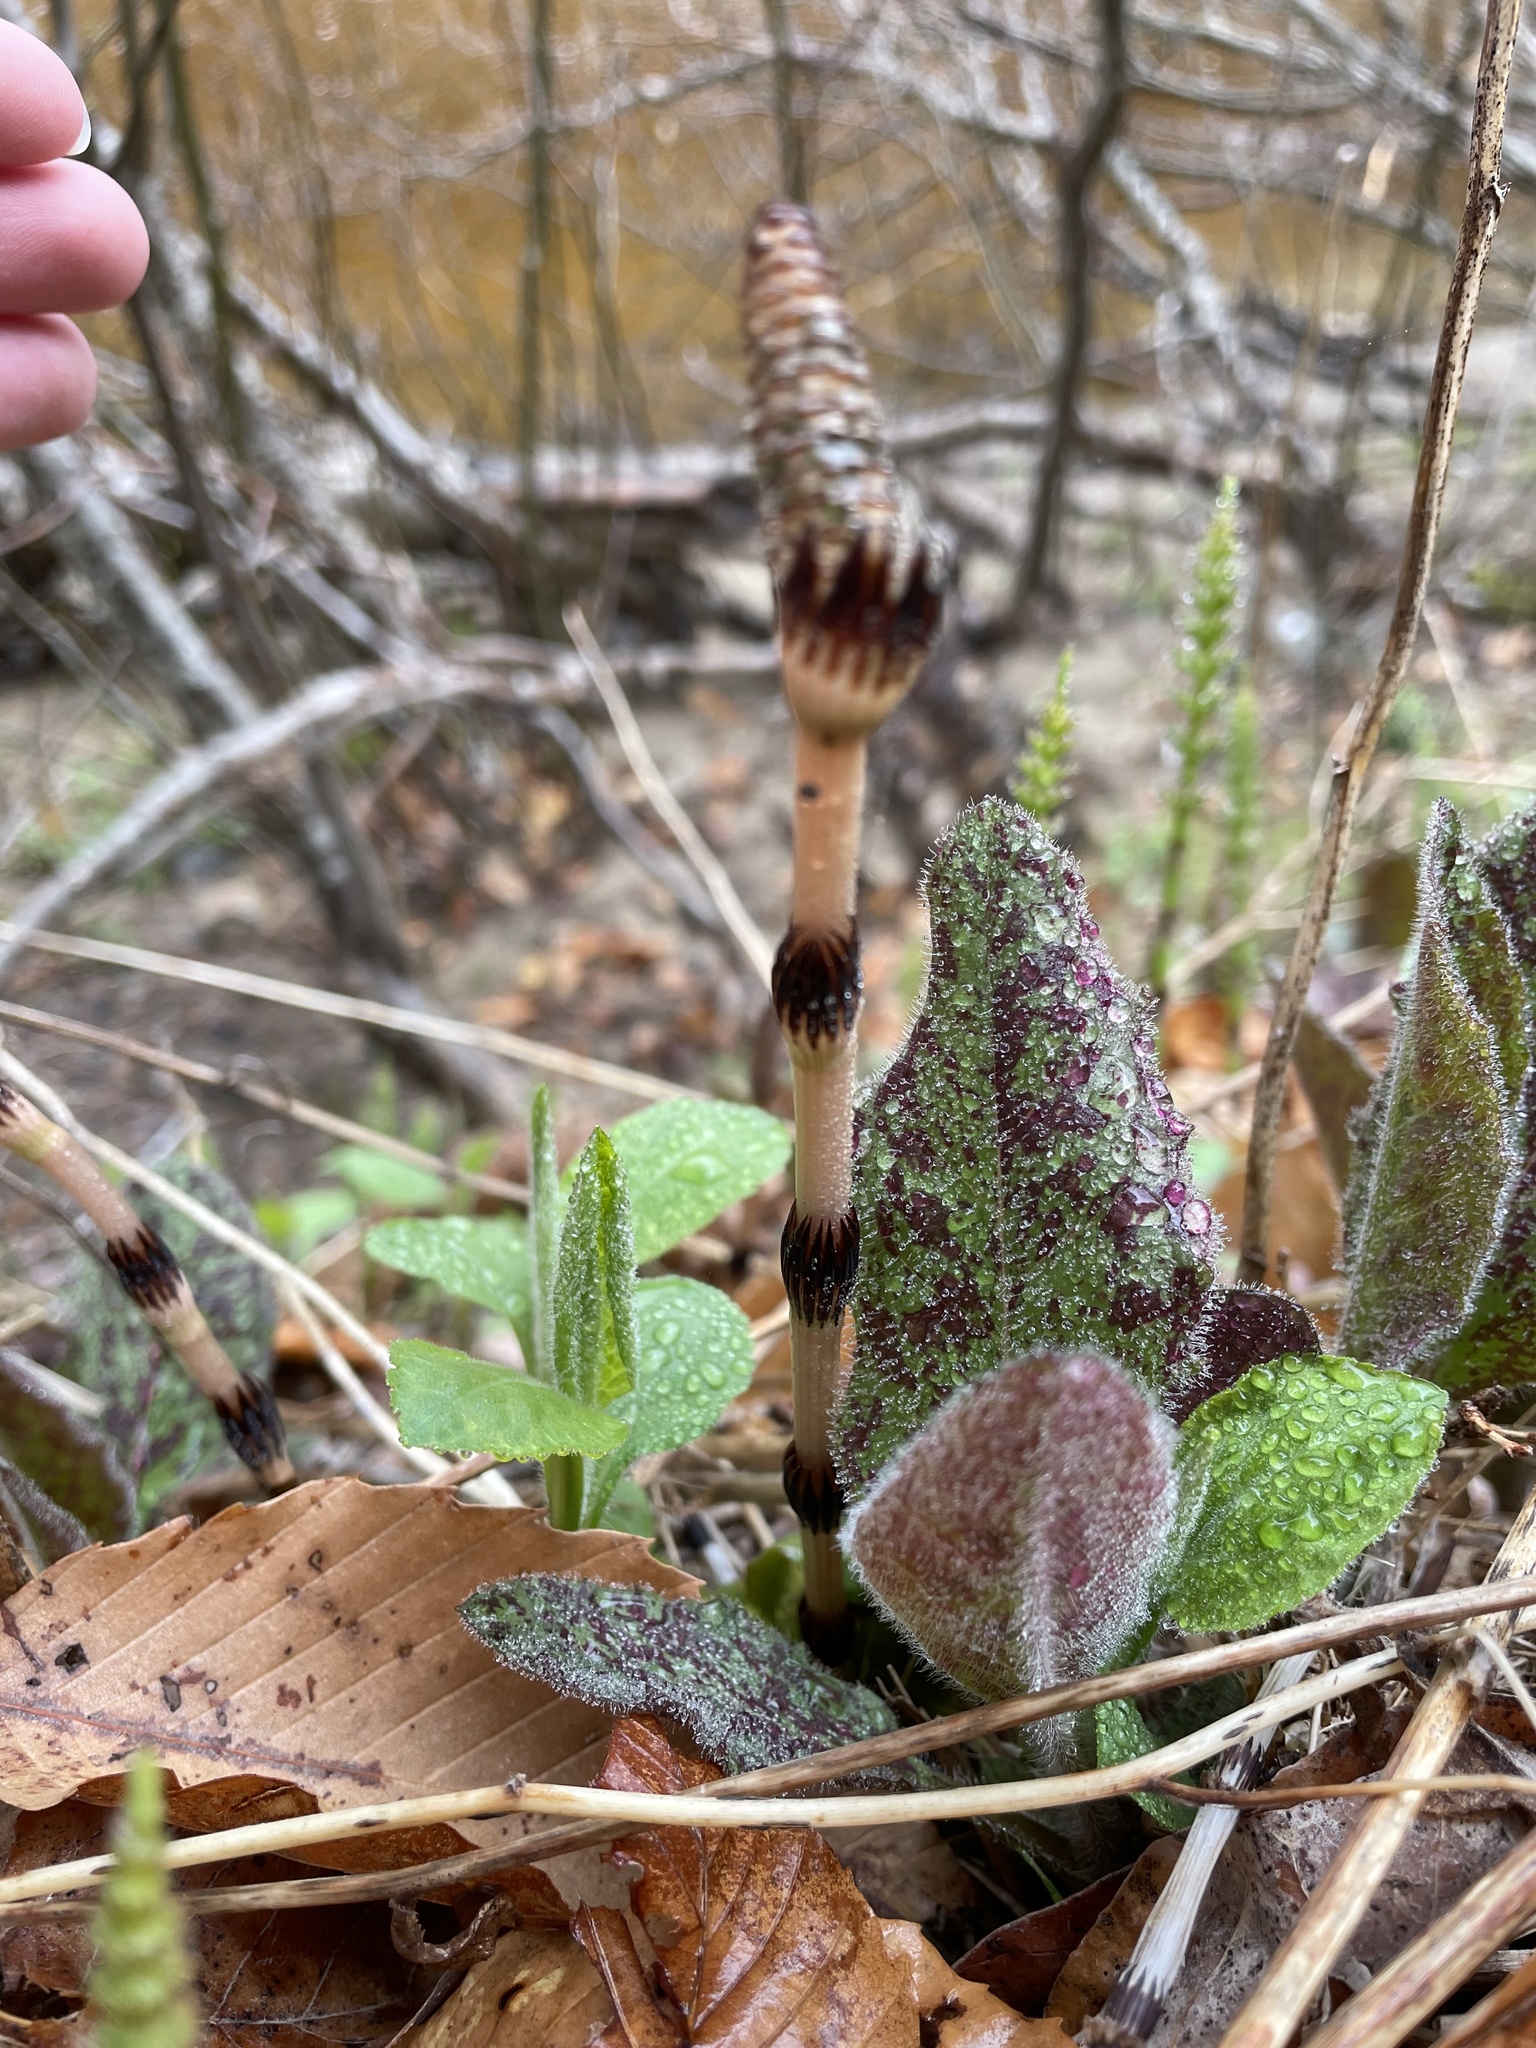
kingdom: Plantae
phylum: Tracheophyta
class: Polypodiopsida
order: Equisetales
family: Equisetaceae
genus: Equisetum
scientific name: Equisetum arvense
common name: Field horsetail
